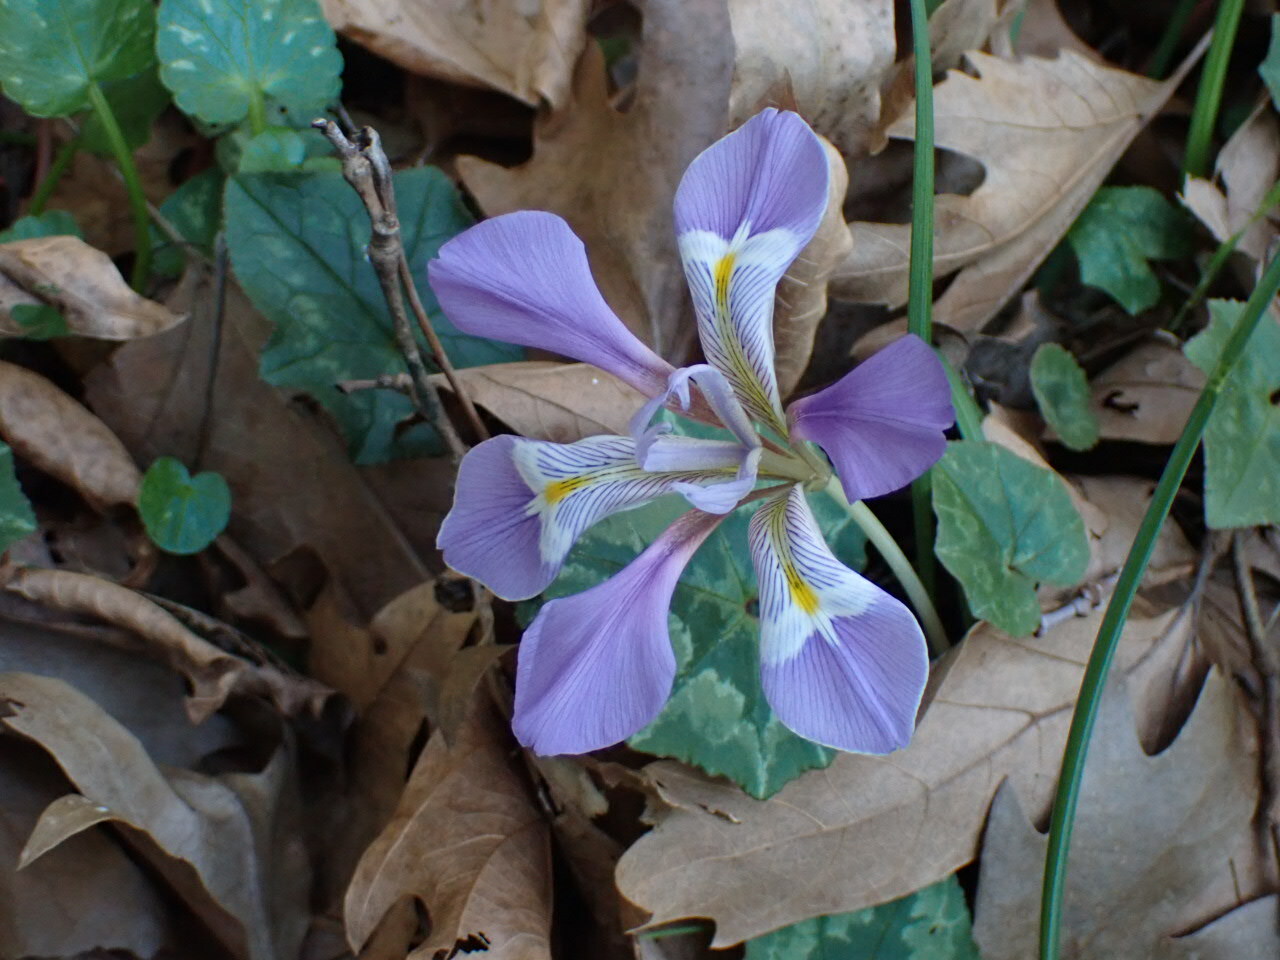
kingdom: Plantae
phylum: Tracheophyta
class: Liliopsida
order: Asparagales
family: Iridaceae
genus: Iris
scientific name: Iris unguicularis
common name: Algerian iris
